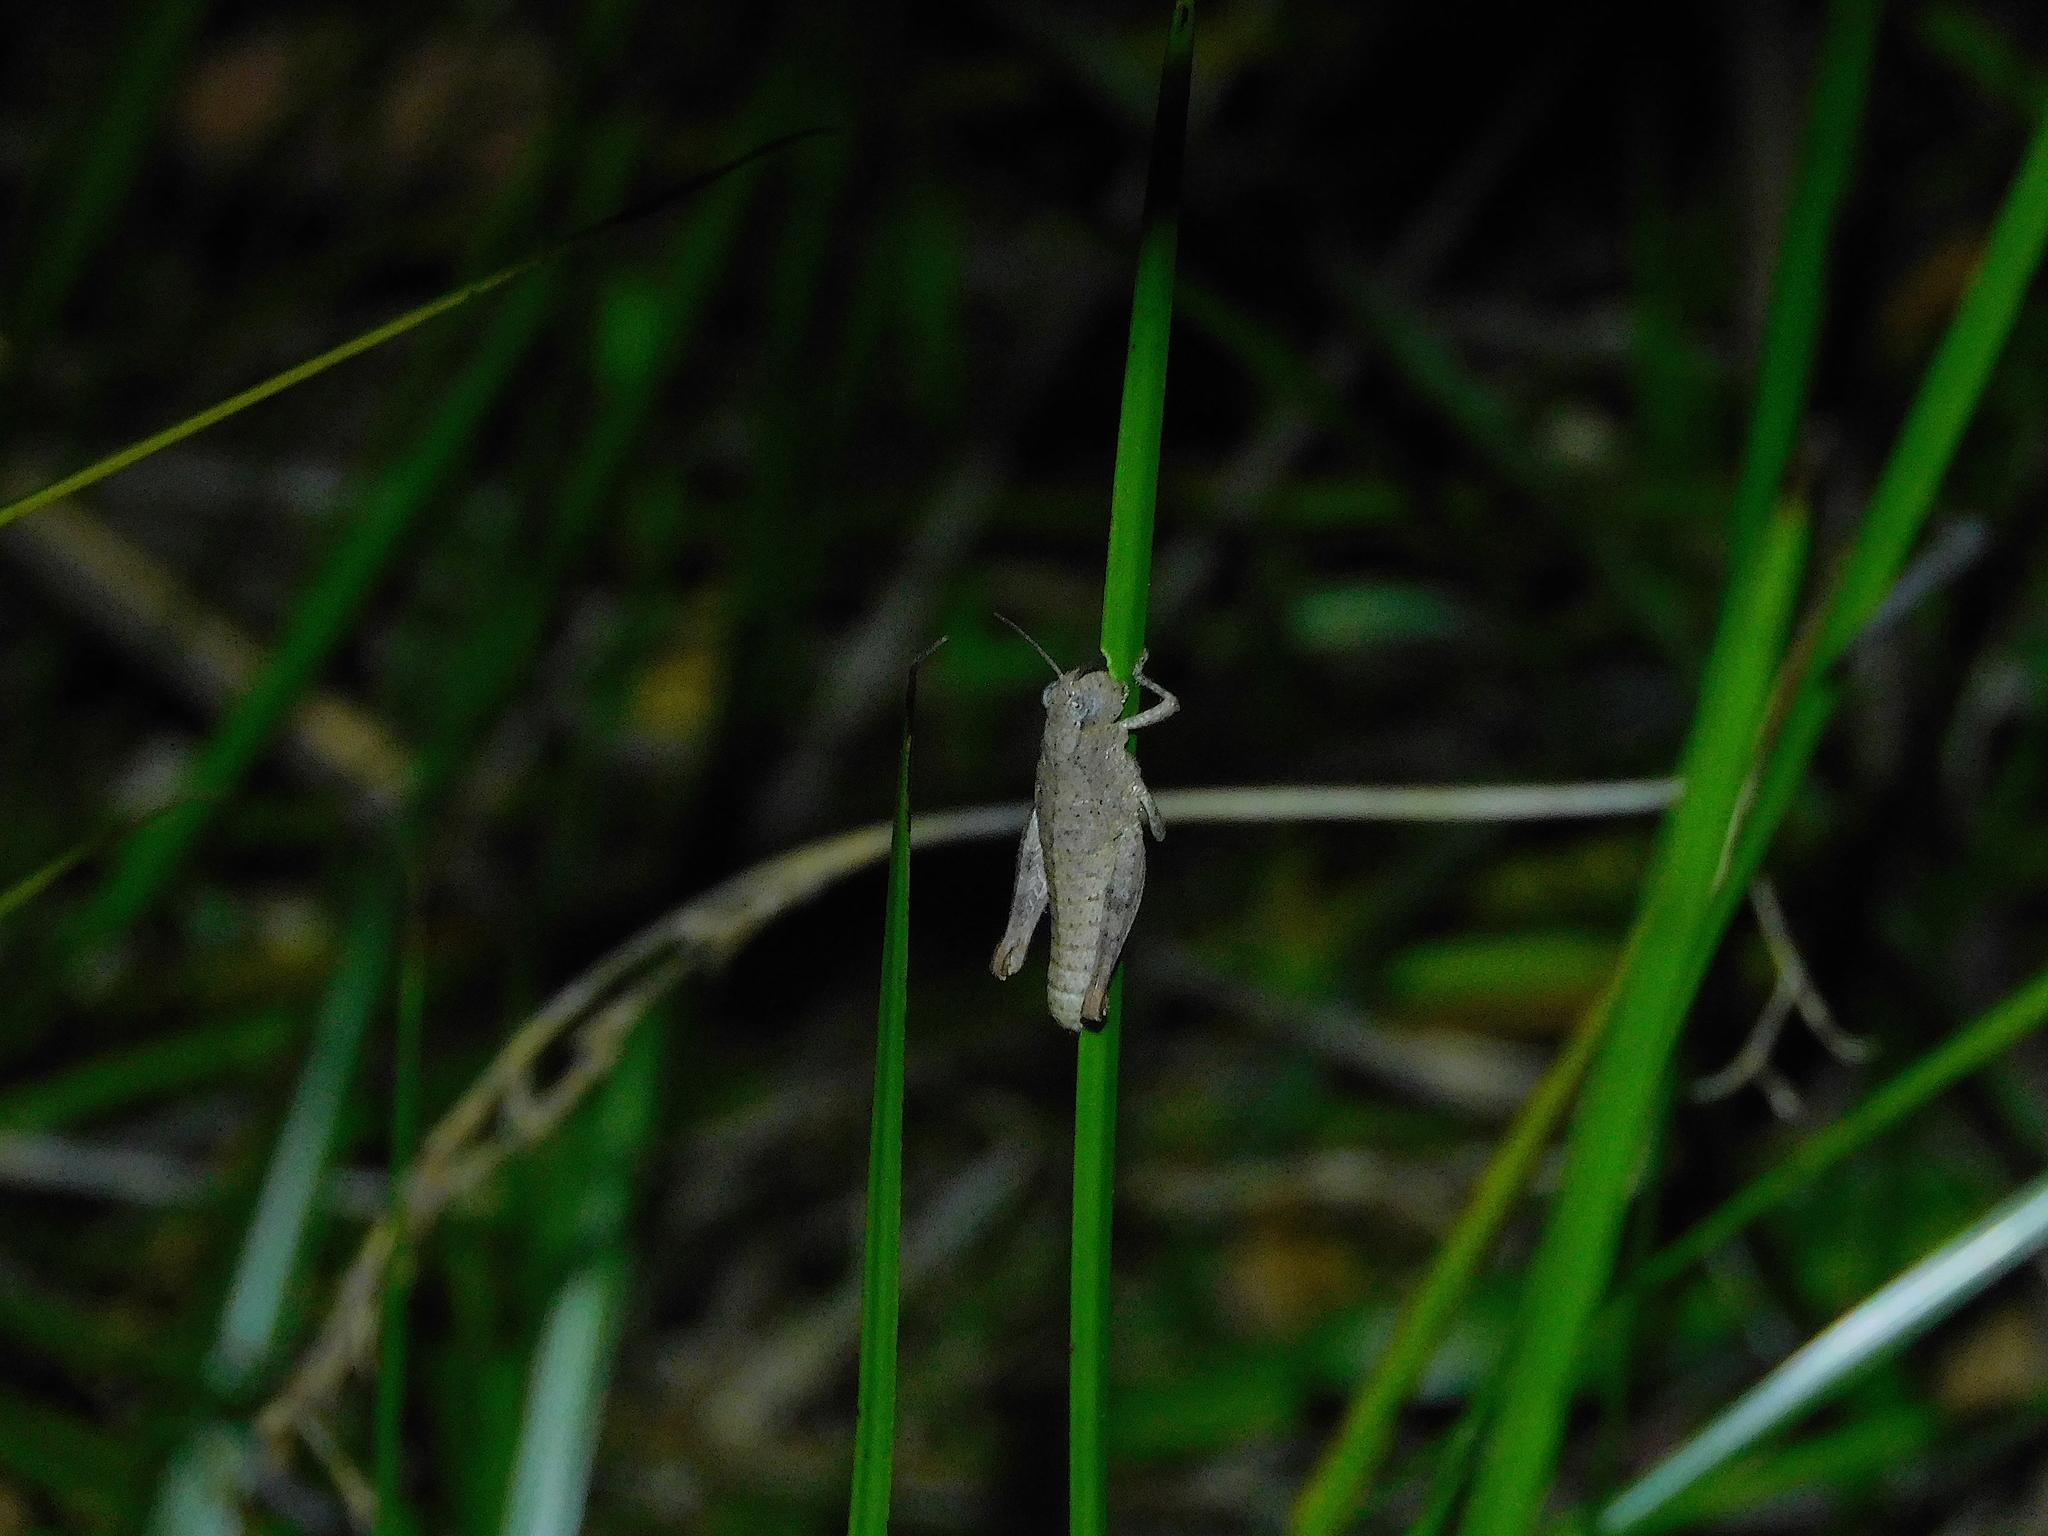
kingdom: Animalia
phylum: Arthropoda
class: Insecta
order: Orthoptera
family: Acrididae
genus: Tasmaniacris
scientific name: Tasmaniacris tasmaniensis
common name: Tasmanian grasshopper
